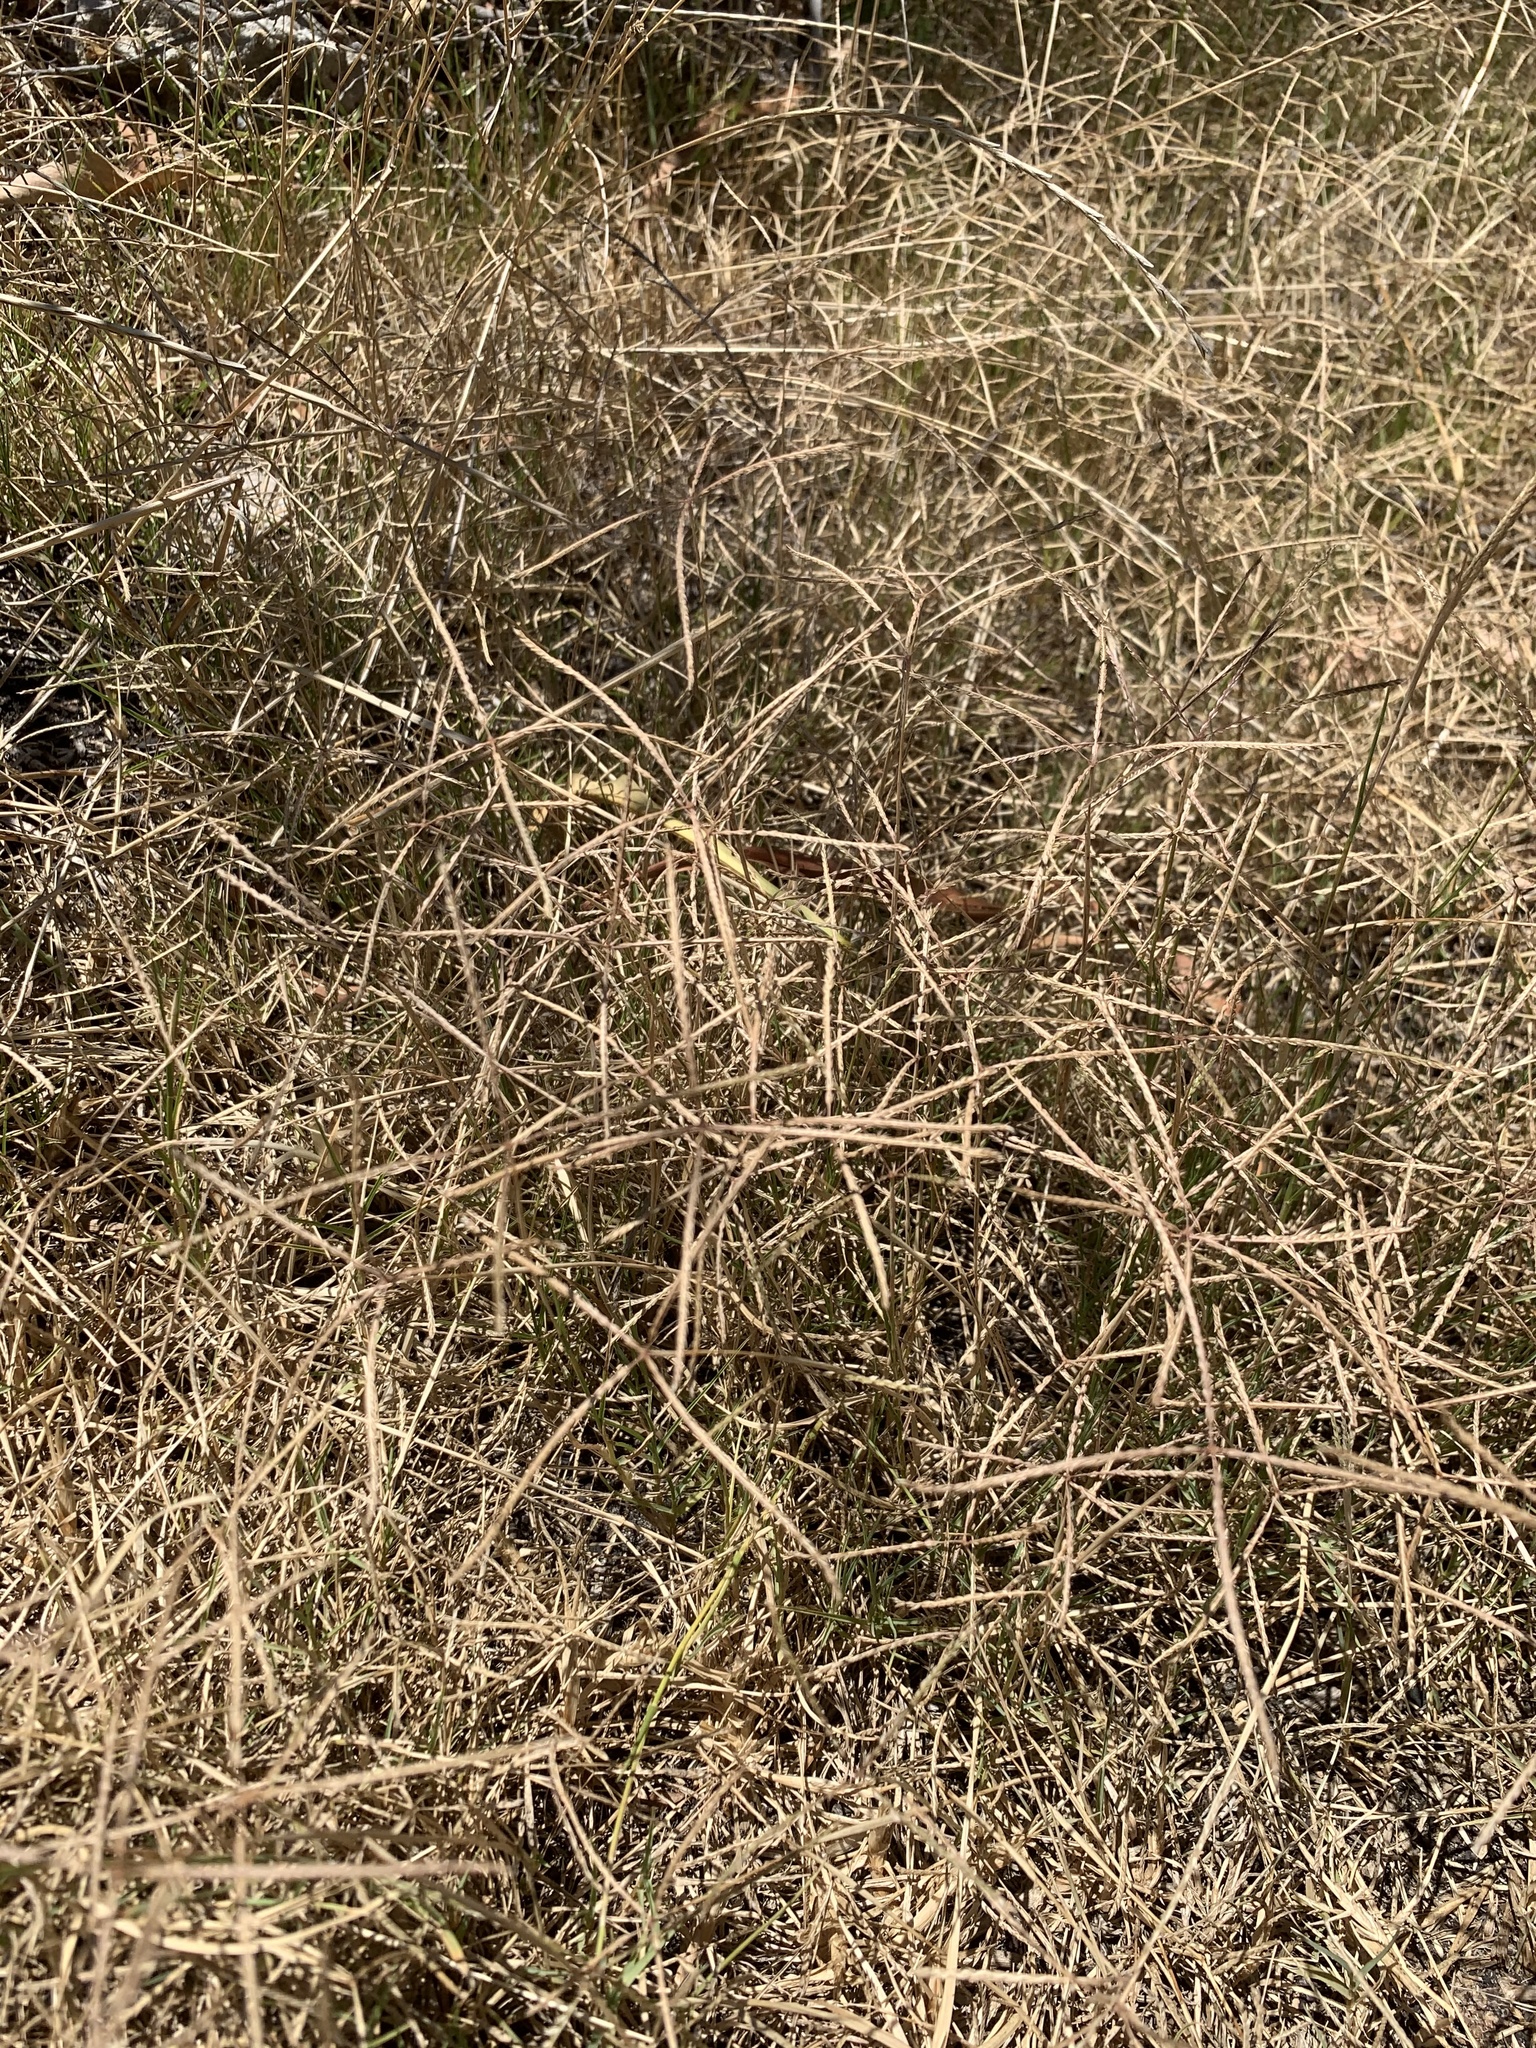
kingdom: Plantae
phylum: Tracheophyta
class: Liliopsida
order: Poales
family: Poaceae
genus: Cynodon
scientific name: Cynodon dactylon
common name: Bermuda grass
